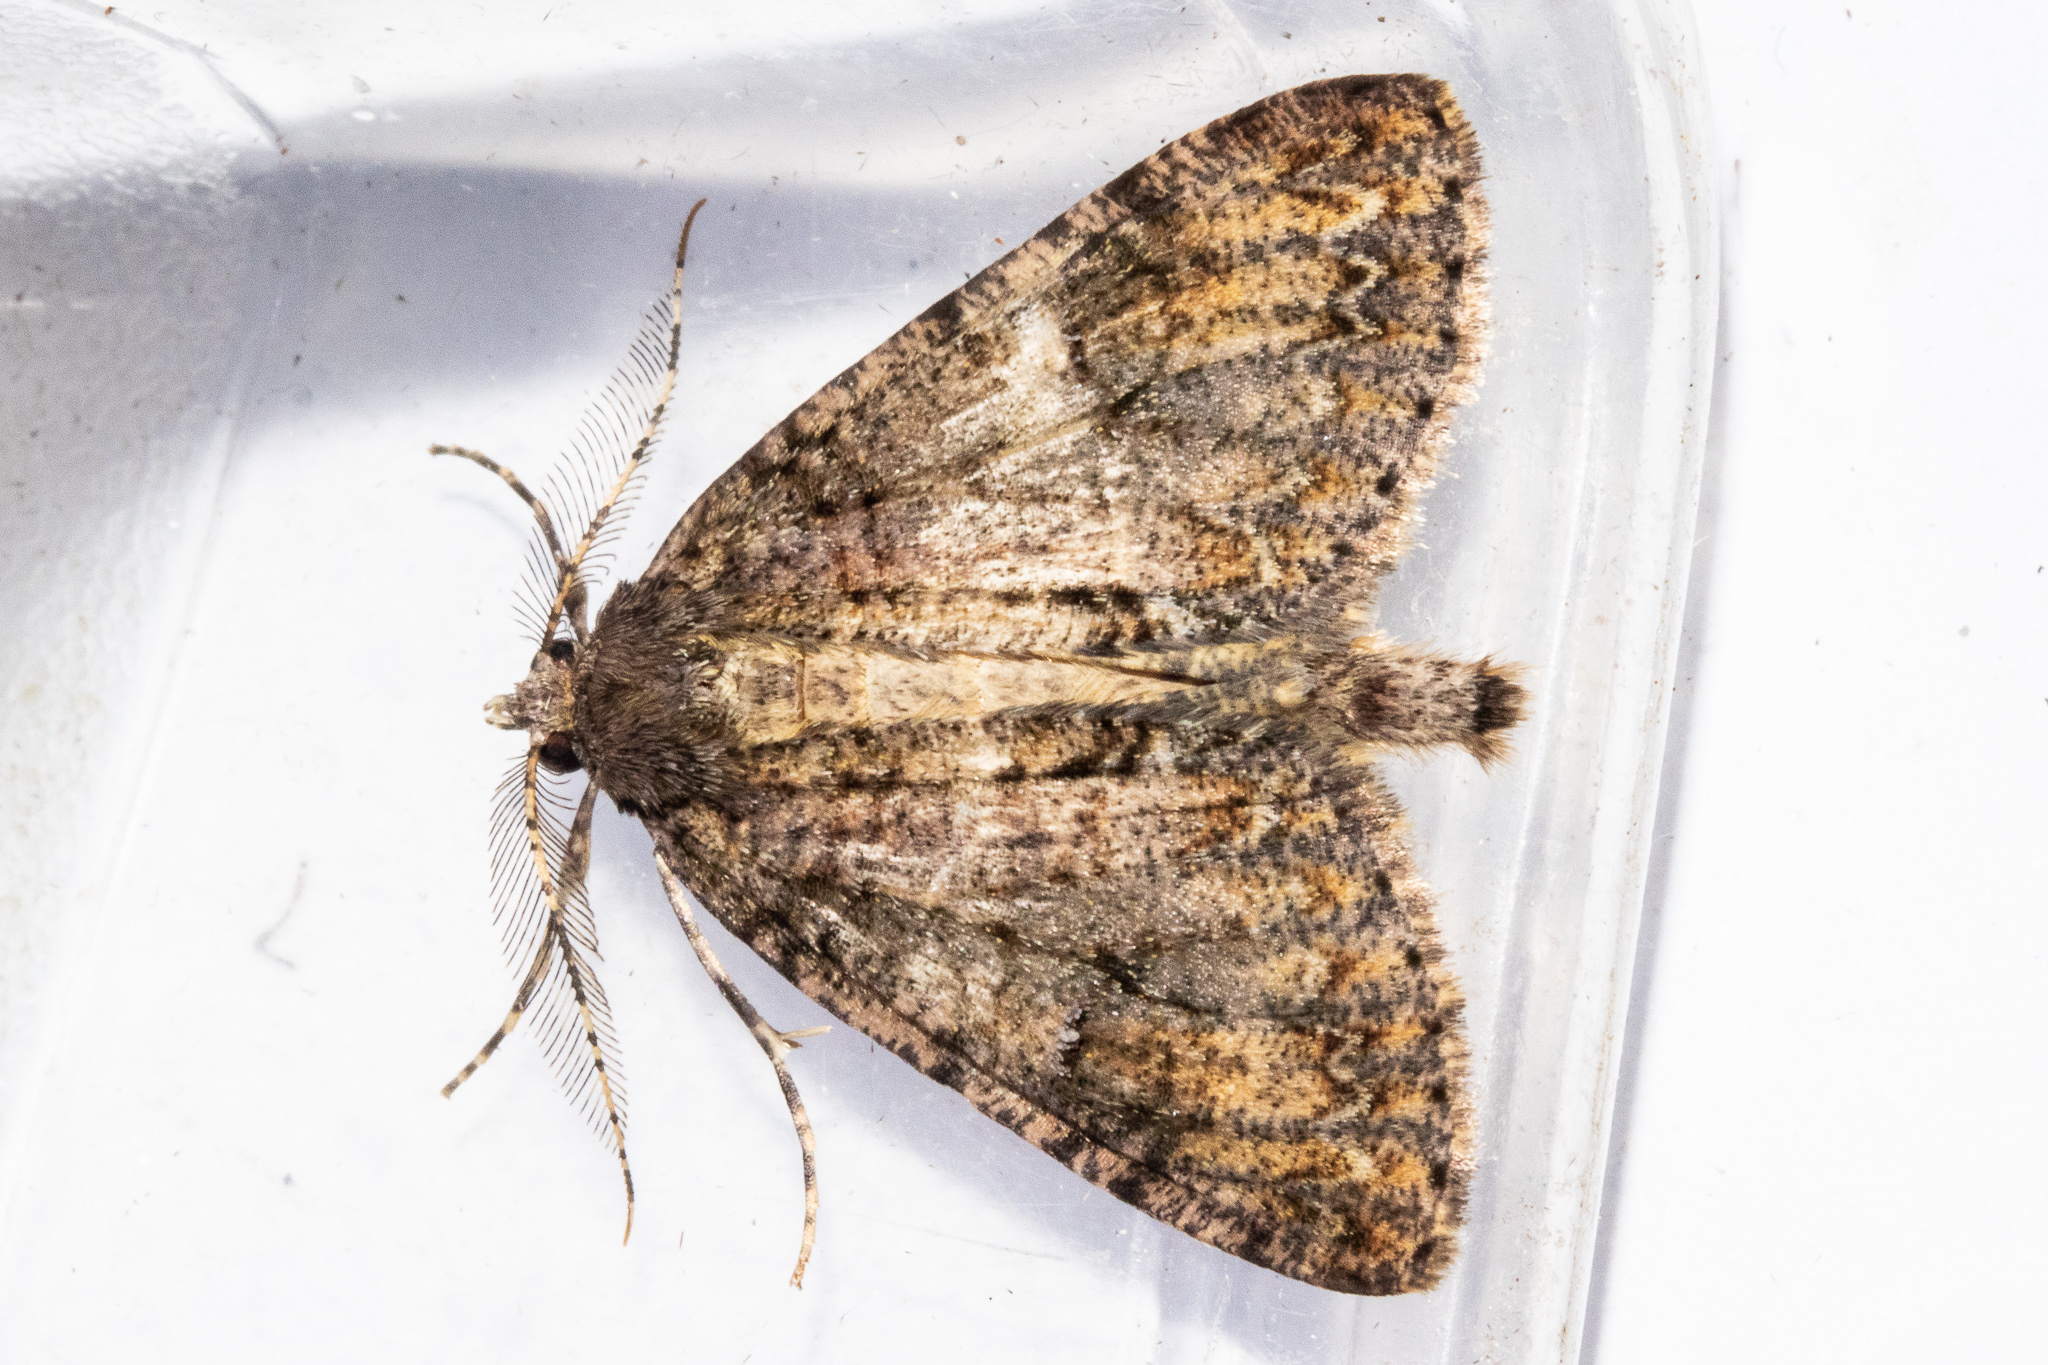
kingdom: Animalia
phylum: Arthropoda
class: Insecta
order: Lepidoptera
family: Geometridae
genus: Pseudocoremia
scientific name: Pseudocoremia suavis
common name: Common forest looper
